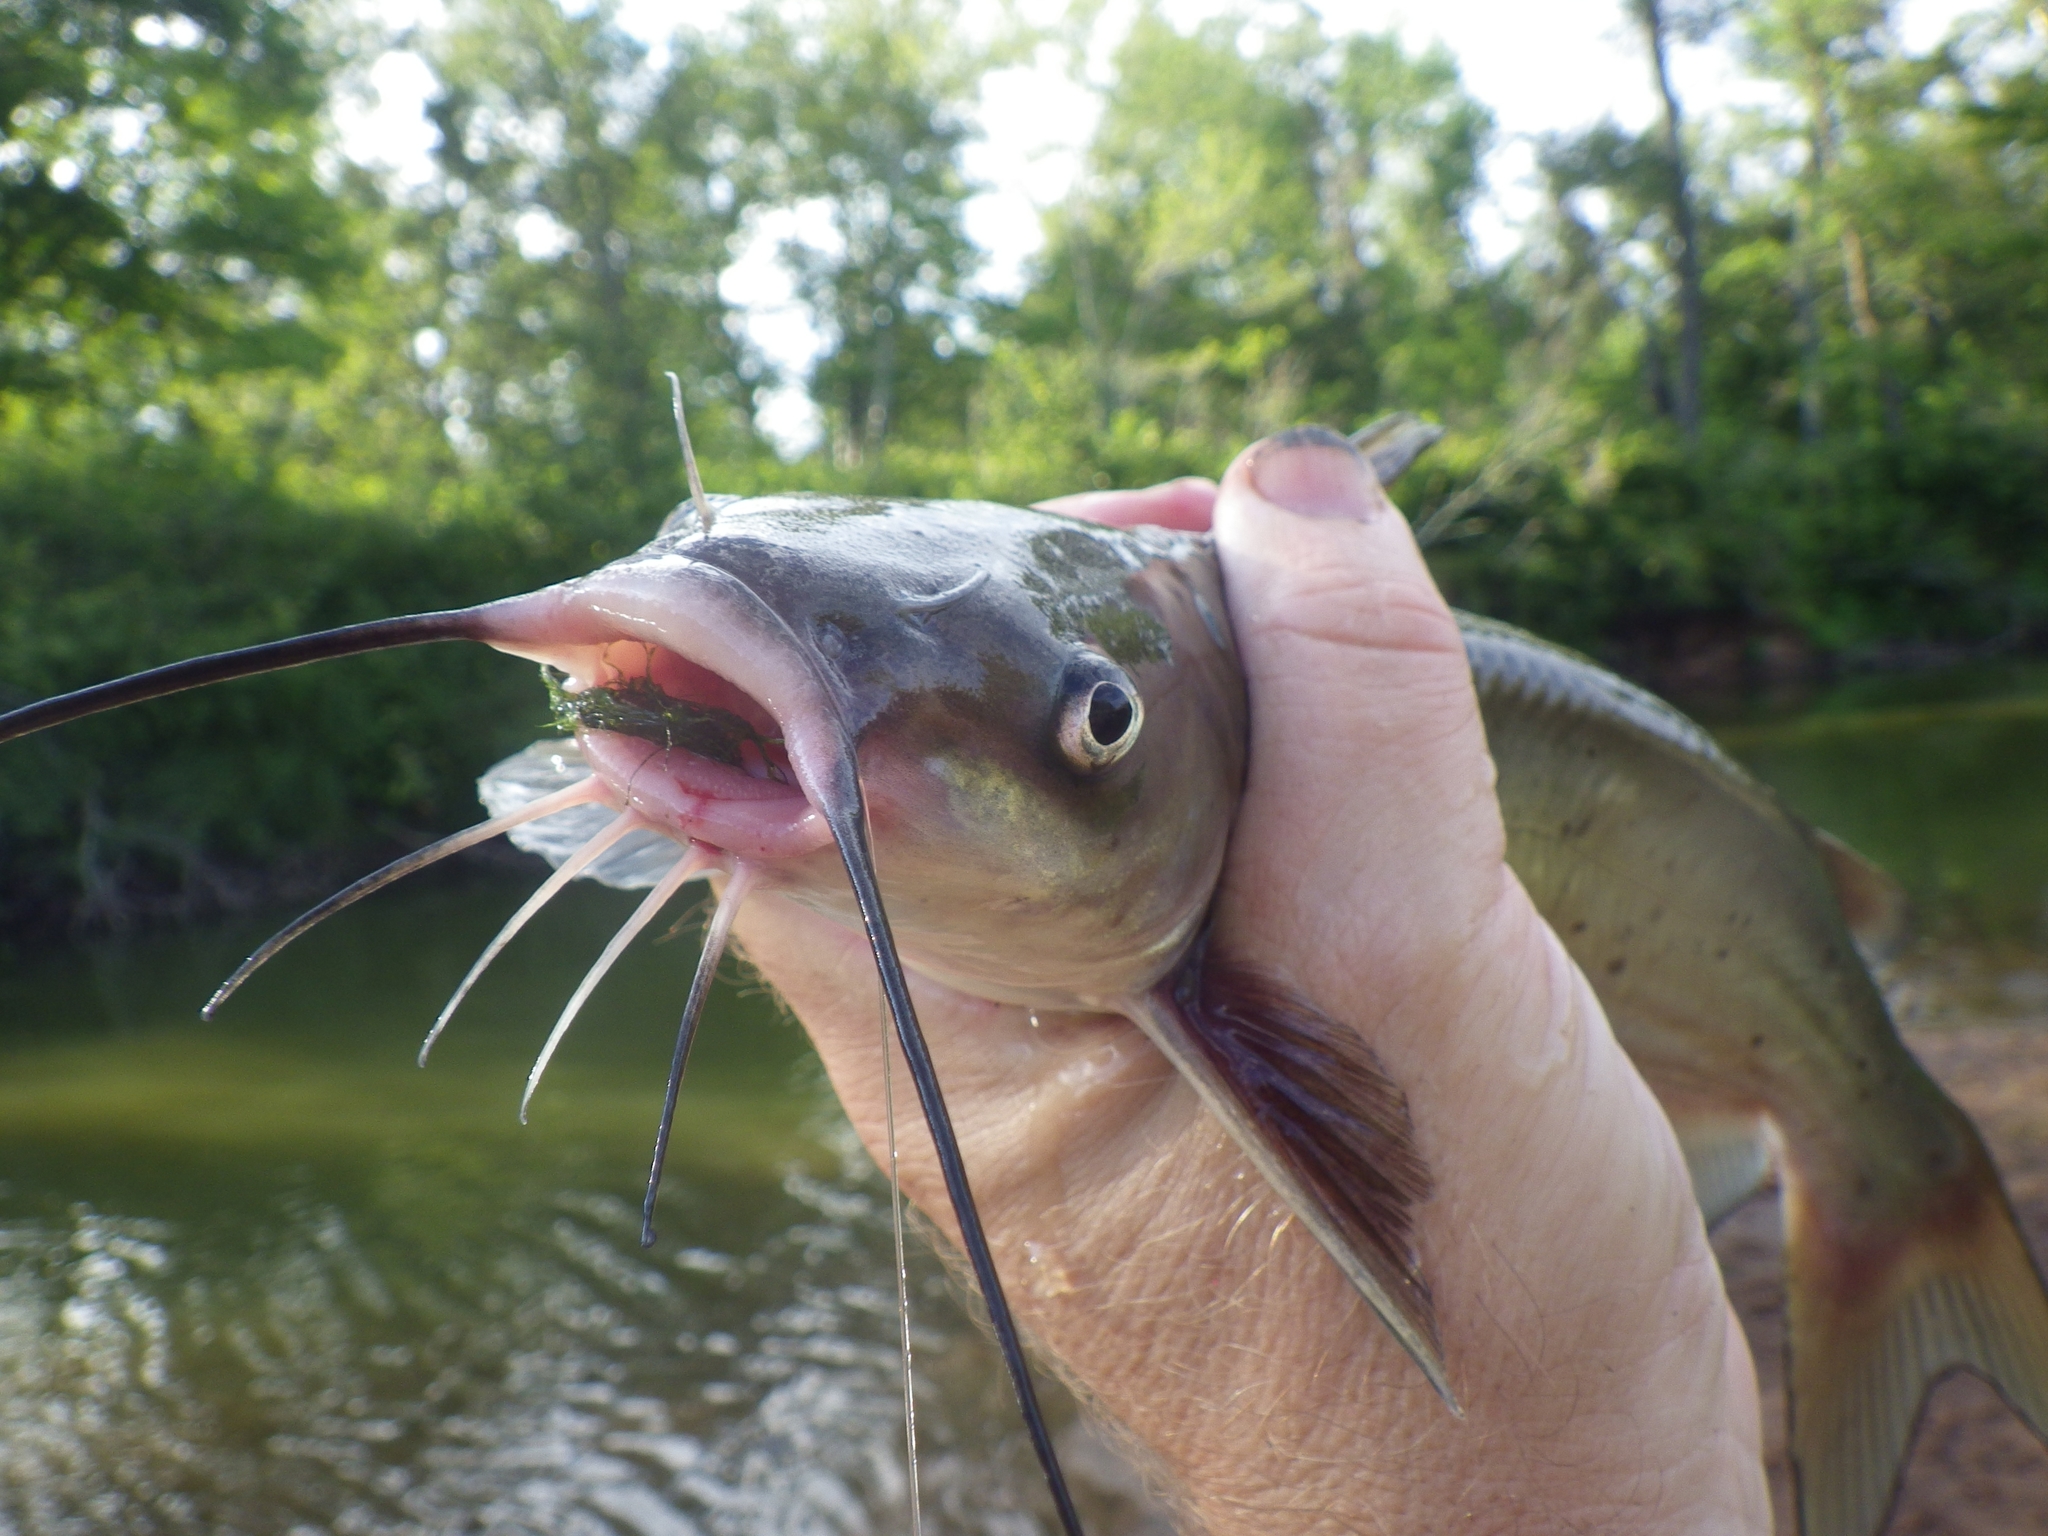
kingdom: Animalia
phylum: Chordata
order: Siluriformes
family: Ictaluridae
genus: Ictalurus
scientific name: Ictalurus punctatus
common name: Channel catfish
